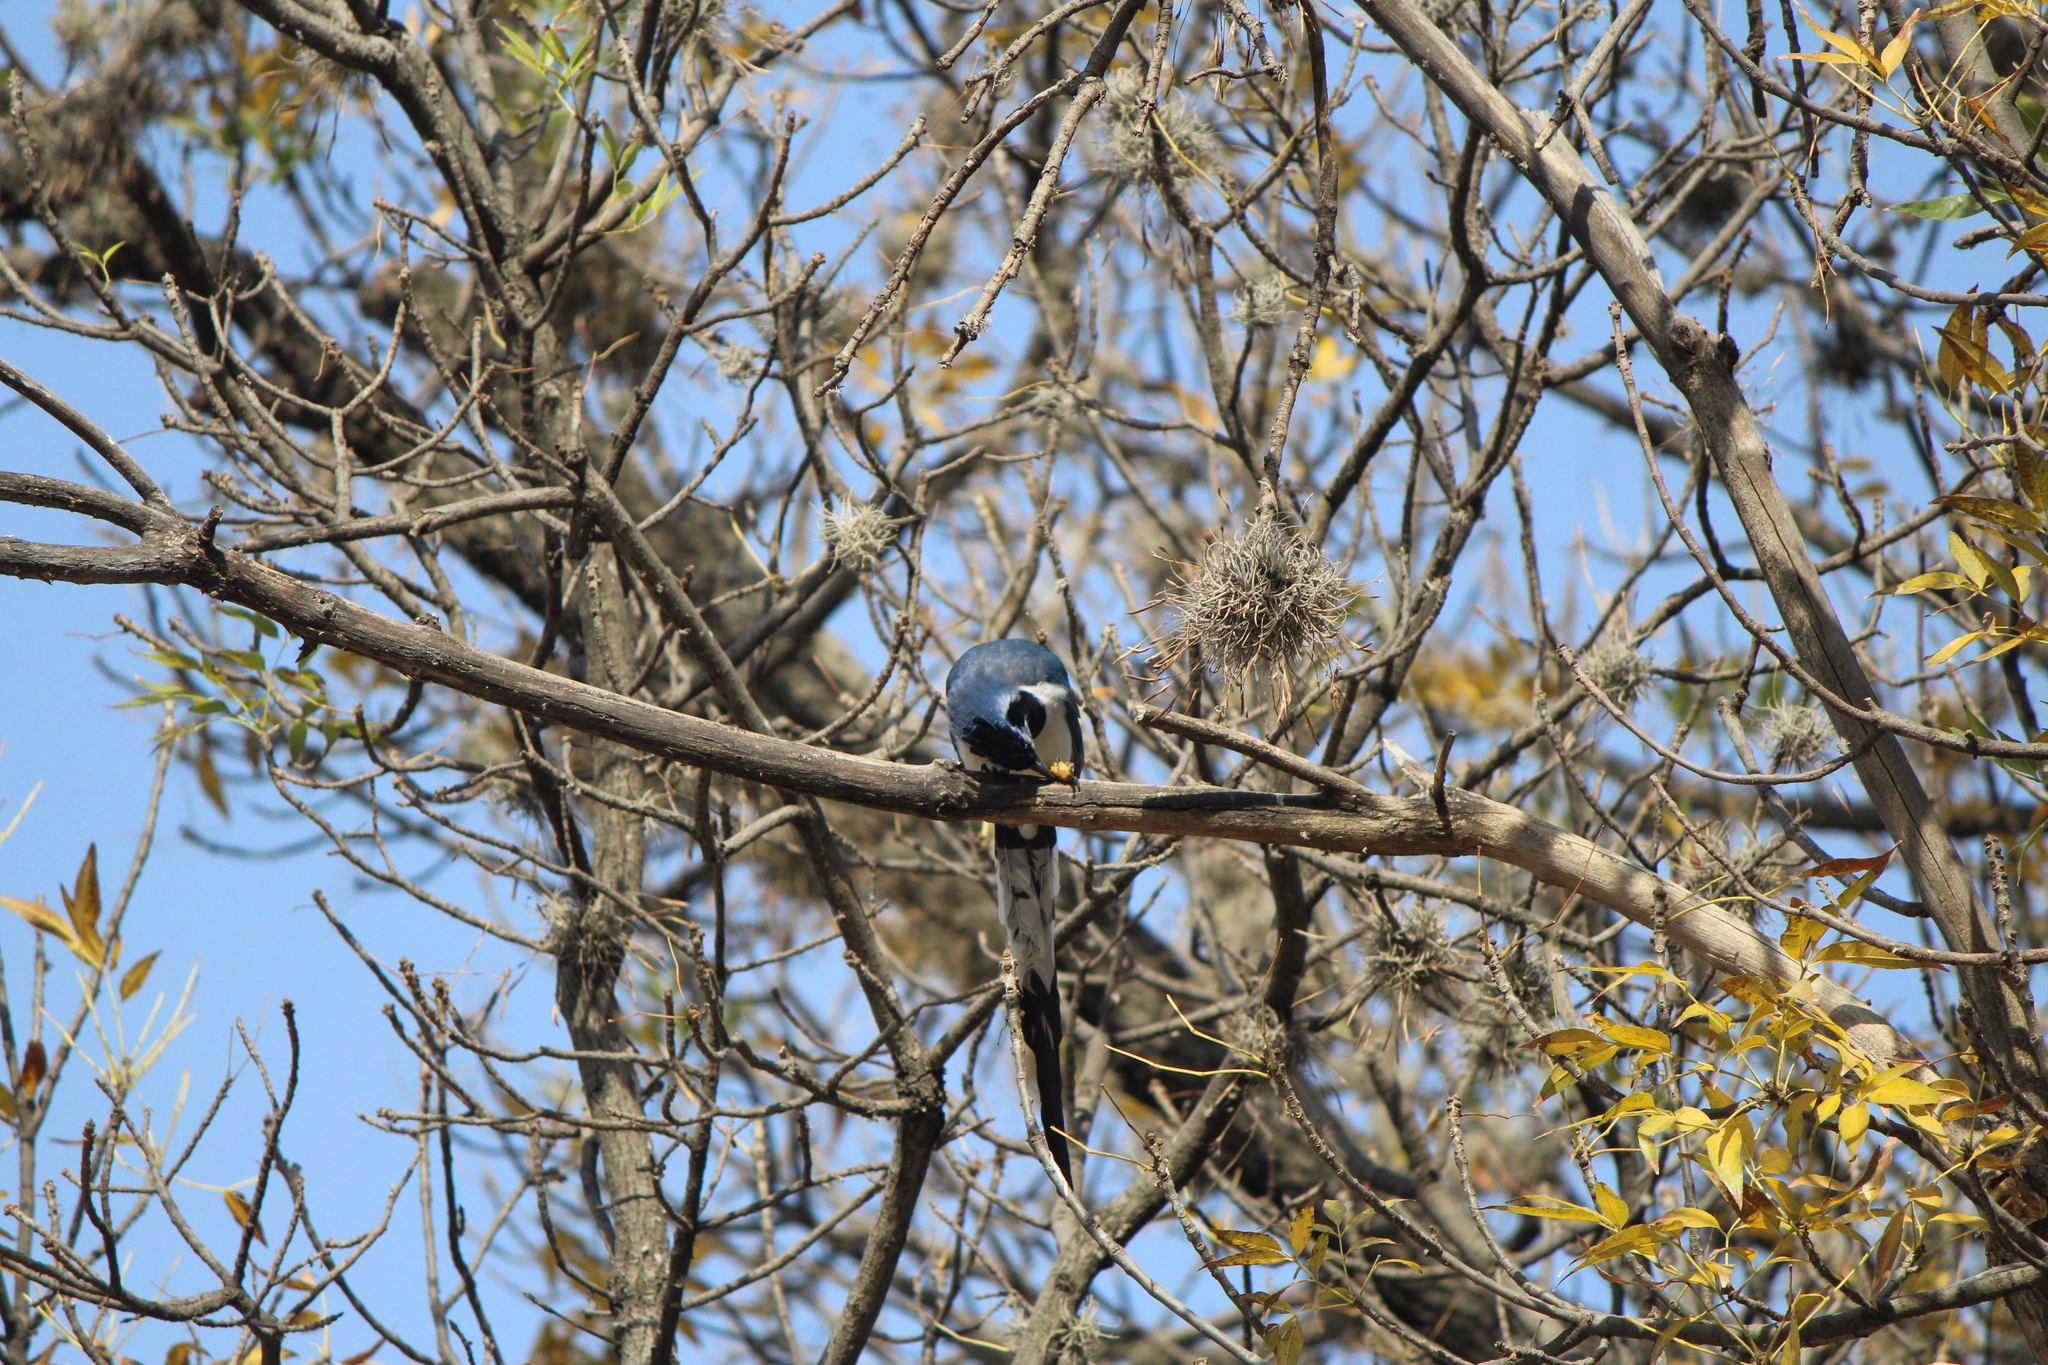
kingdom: Animalia
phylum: Chordata
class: Aves
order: Passeriformes
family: Corvidae
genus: Calocitta
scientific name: Calocitta colliei
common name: Black-throated magpie-jay
